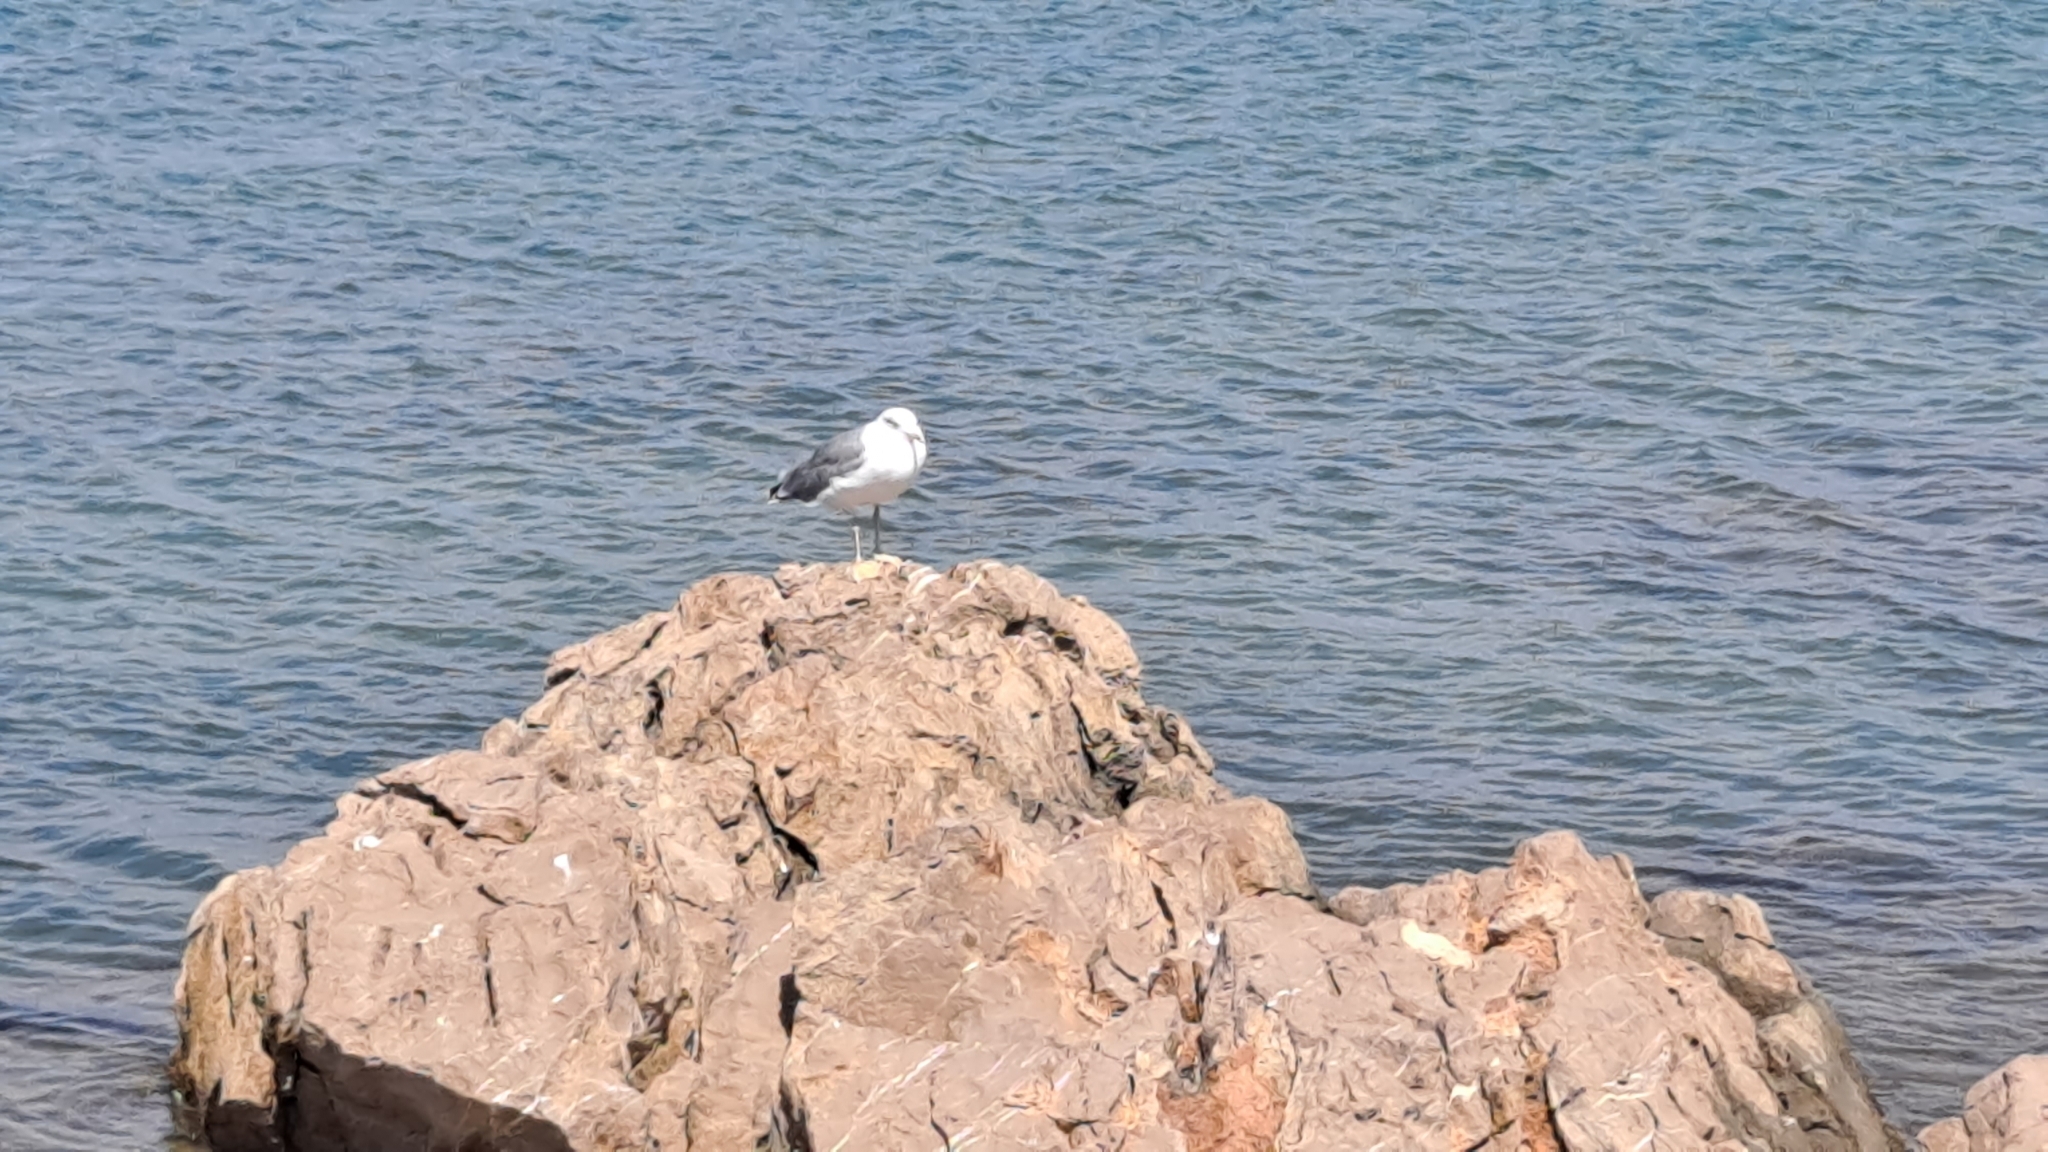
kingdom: Animalia
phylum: Chordata
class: Aves
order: Charadriiformes
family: Laridae
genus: Larus
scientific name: Larus michahellis
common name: Yellow-legged gull
